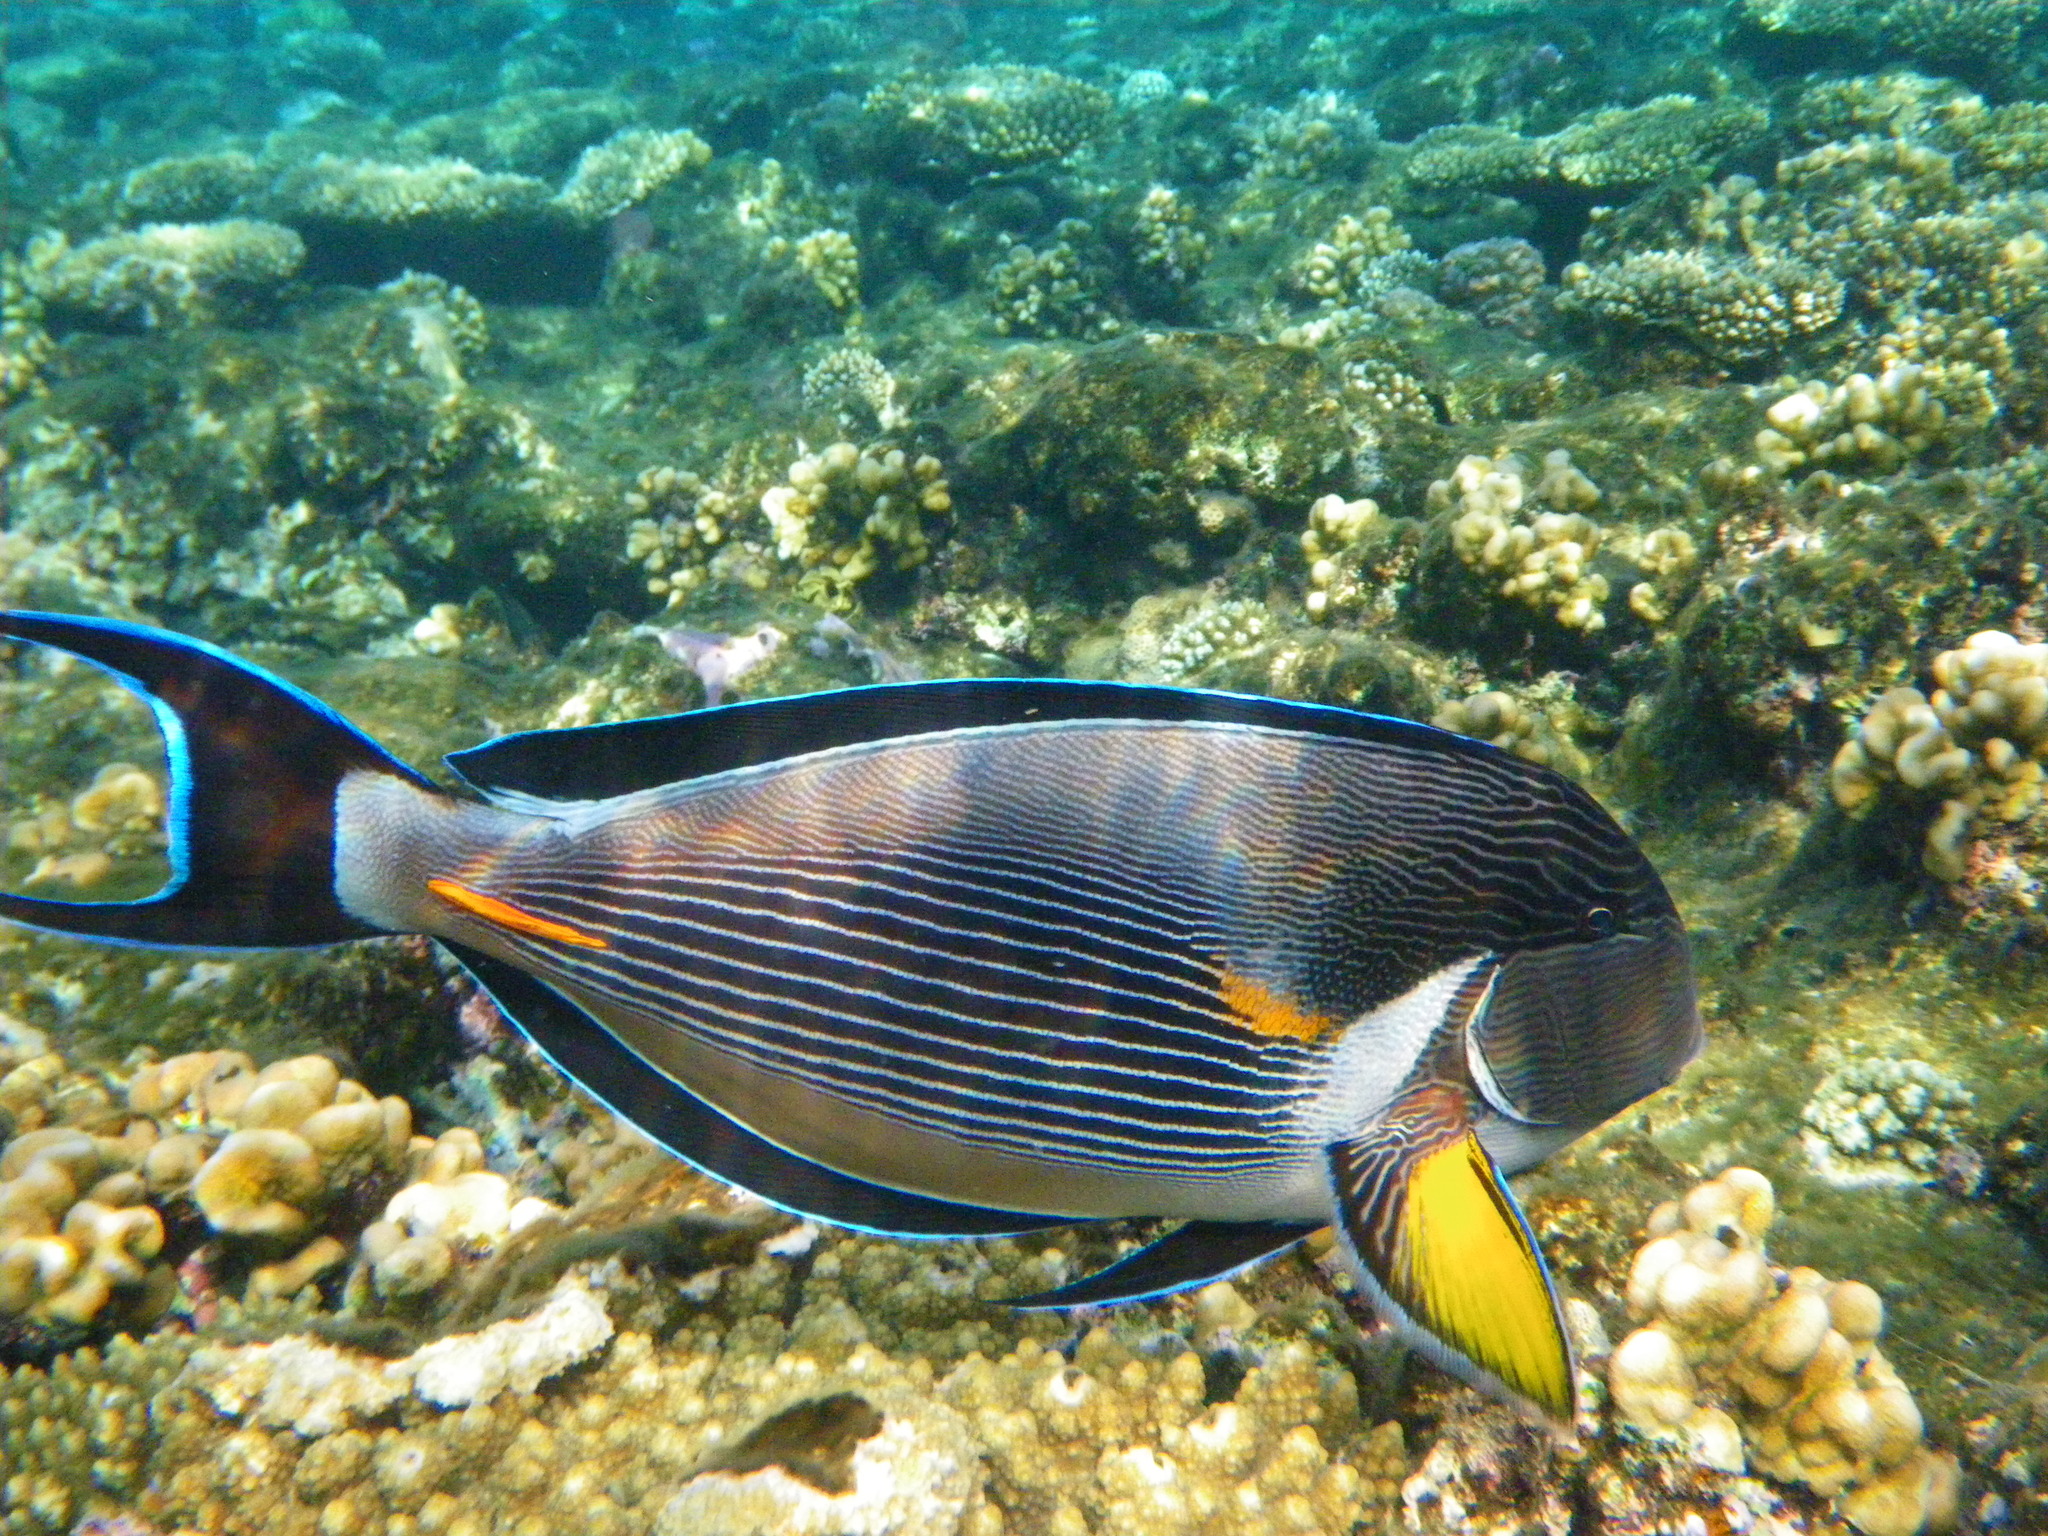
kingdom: Animalia
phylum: Chordata
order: Perciformes
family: Acanthuridae
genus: Acanthurus
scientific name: Acanthurus sohal
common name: Red sea surgeonfish
